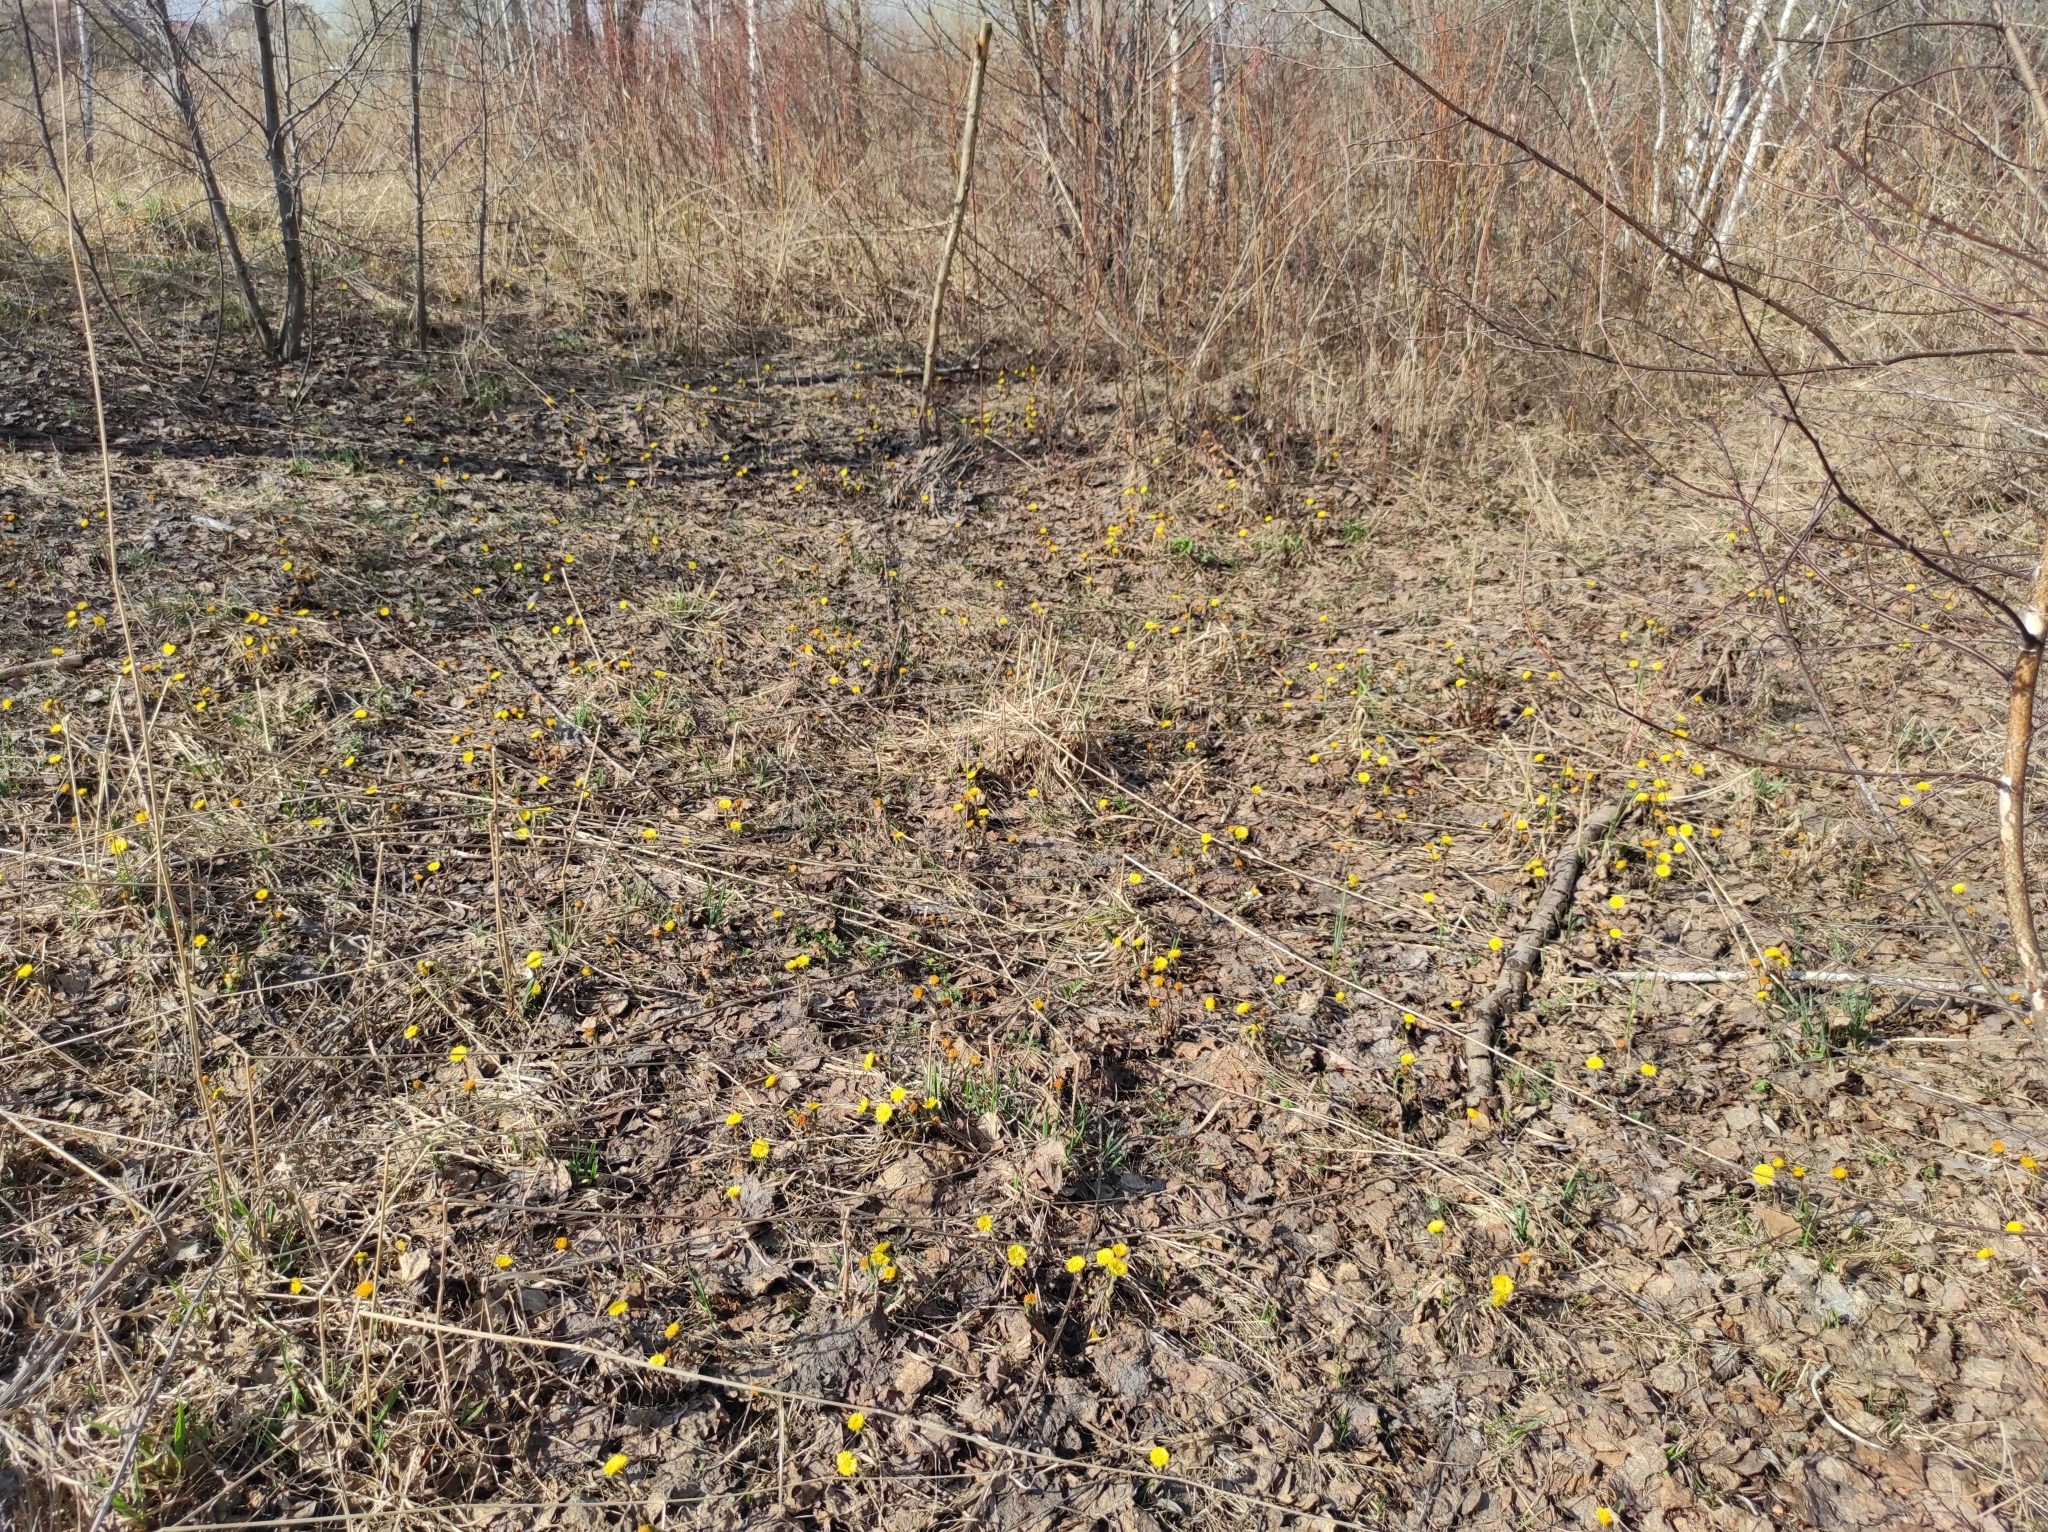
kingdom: Plantae
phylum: Tracheophyta
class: Magnoliopsida
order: Asterales
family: Asteraceae
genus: Tussilago
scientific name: Tussilago farfara
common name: Coltsfoot
